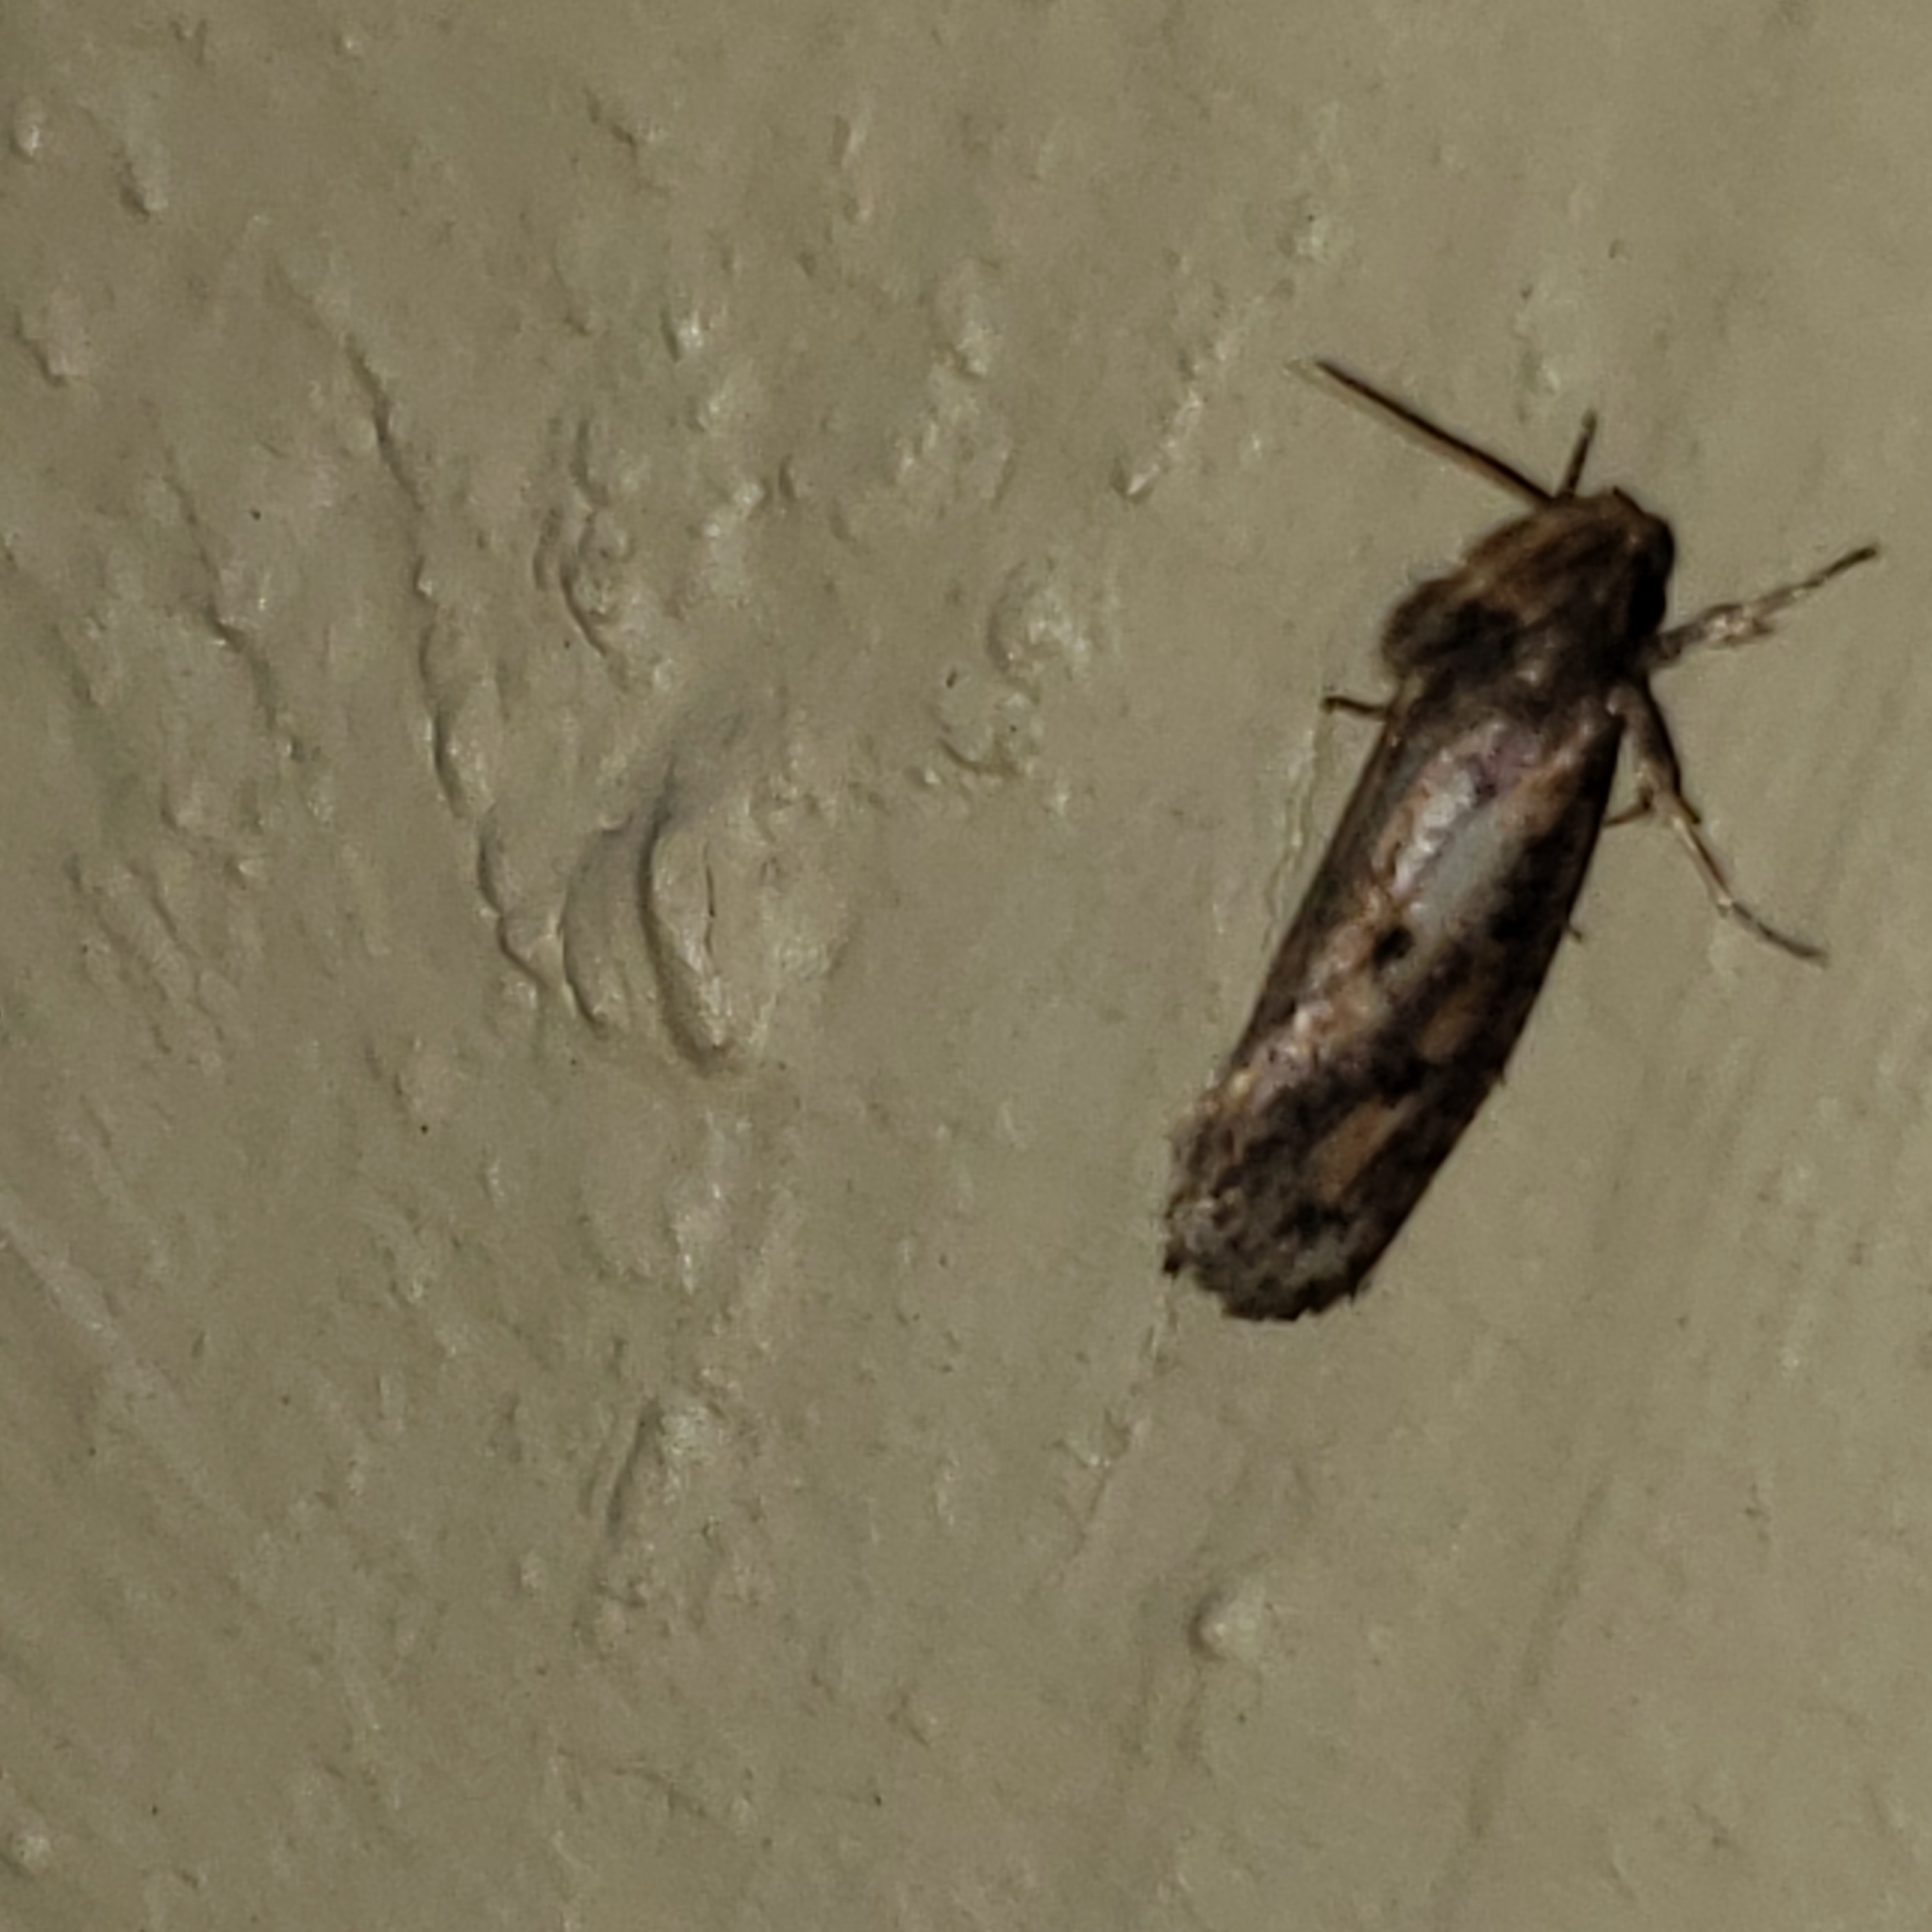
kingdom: Animalia
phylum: Arthropoda
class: Insecta
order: Lepidoptera
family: Tineidae
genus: Acrolophus
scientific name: Acrolophus popeanella
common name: Clemens' grass tubeworm moth
